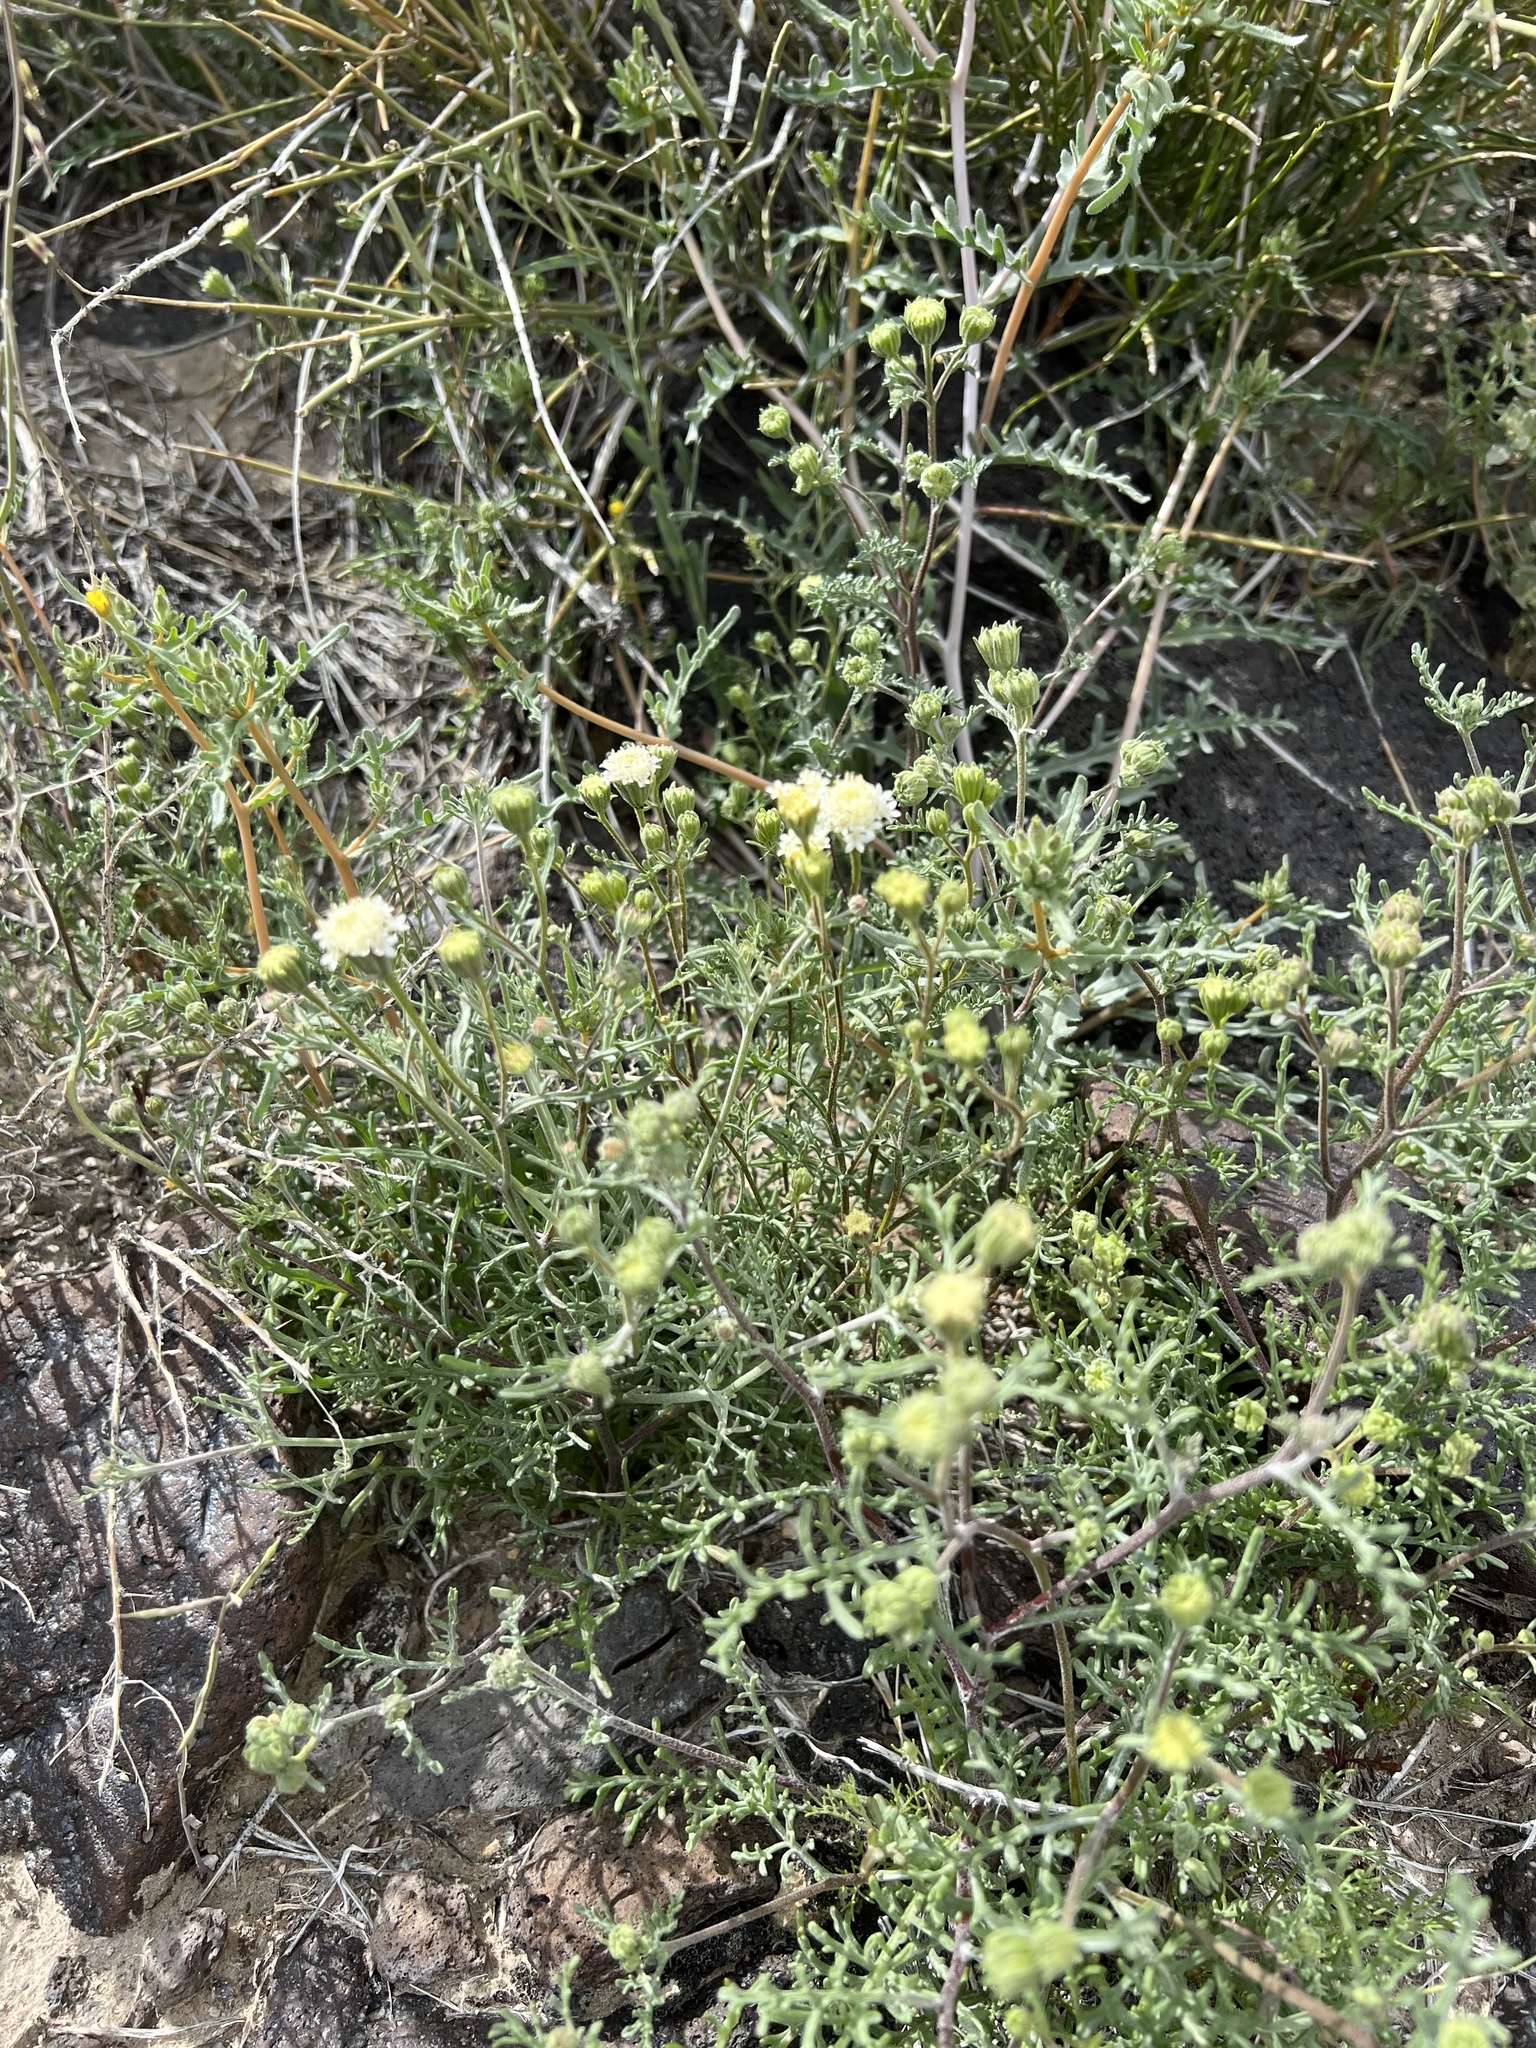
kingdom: Plantae
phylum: Tracheophyta
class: Magnoliopsida
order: Asterales
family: Asteraceae
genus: Chaenactis
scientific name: Chaenactis stevioides
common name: Desert pincushion
